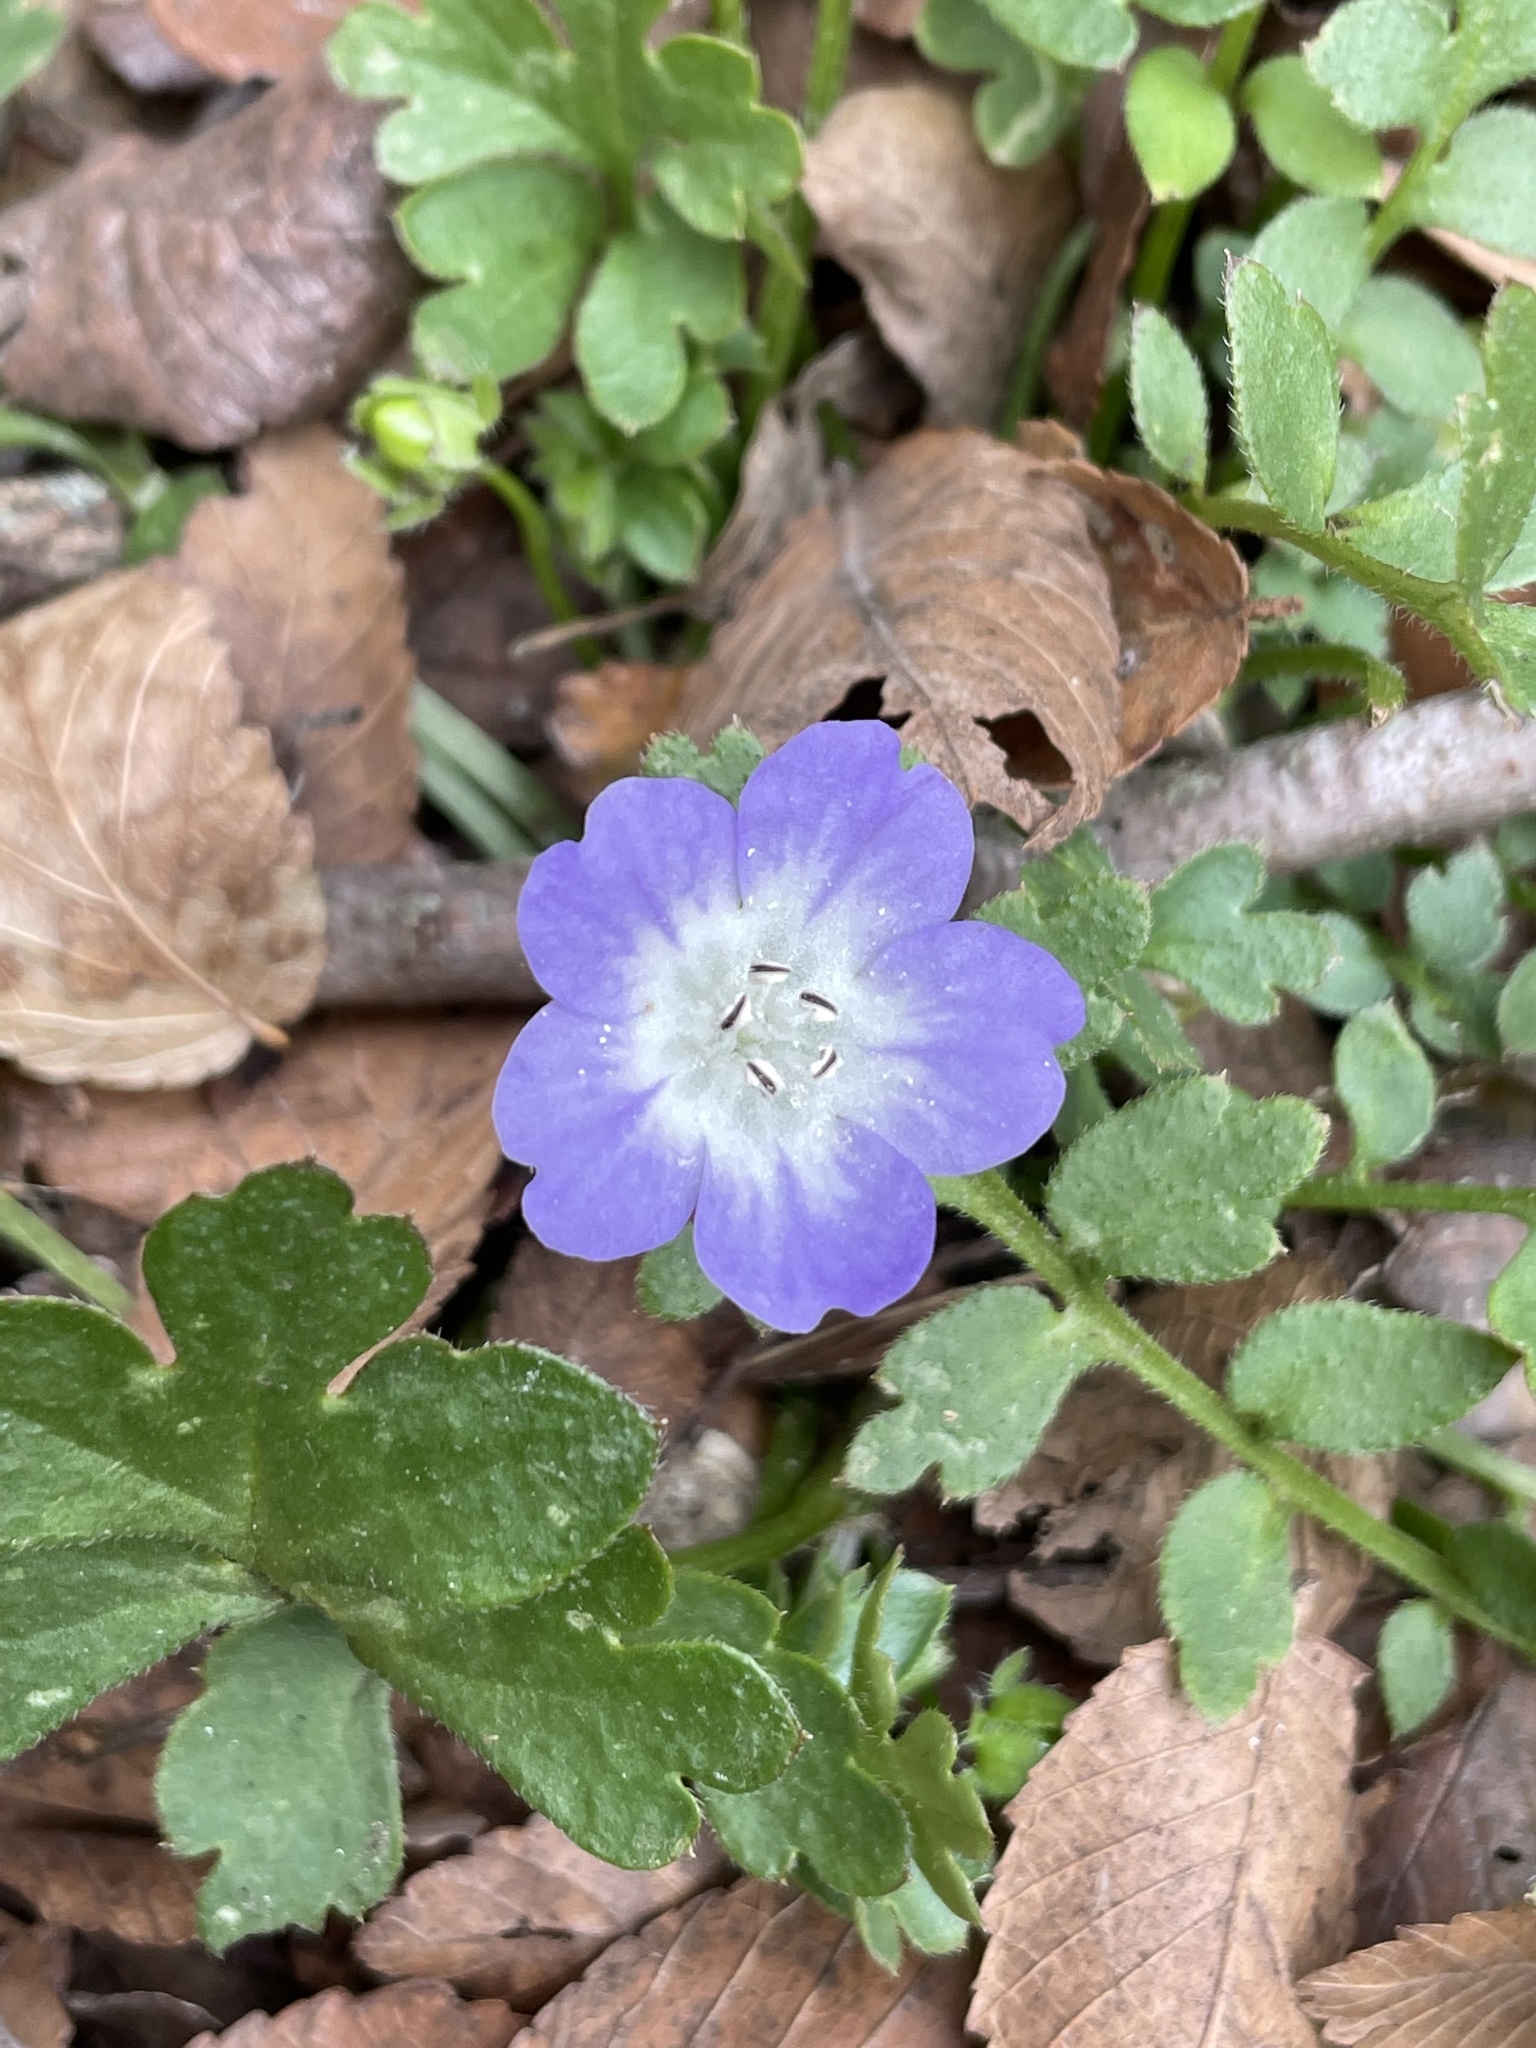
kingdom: Plantae
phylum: Tracheophyta
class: Magnoliopsida
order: Boraginales
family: Hydrophyllaceae
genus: Nemophila
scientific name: Nemophila phacelioides
